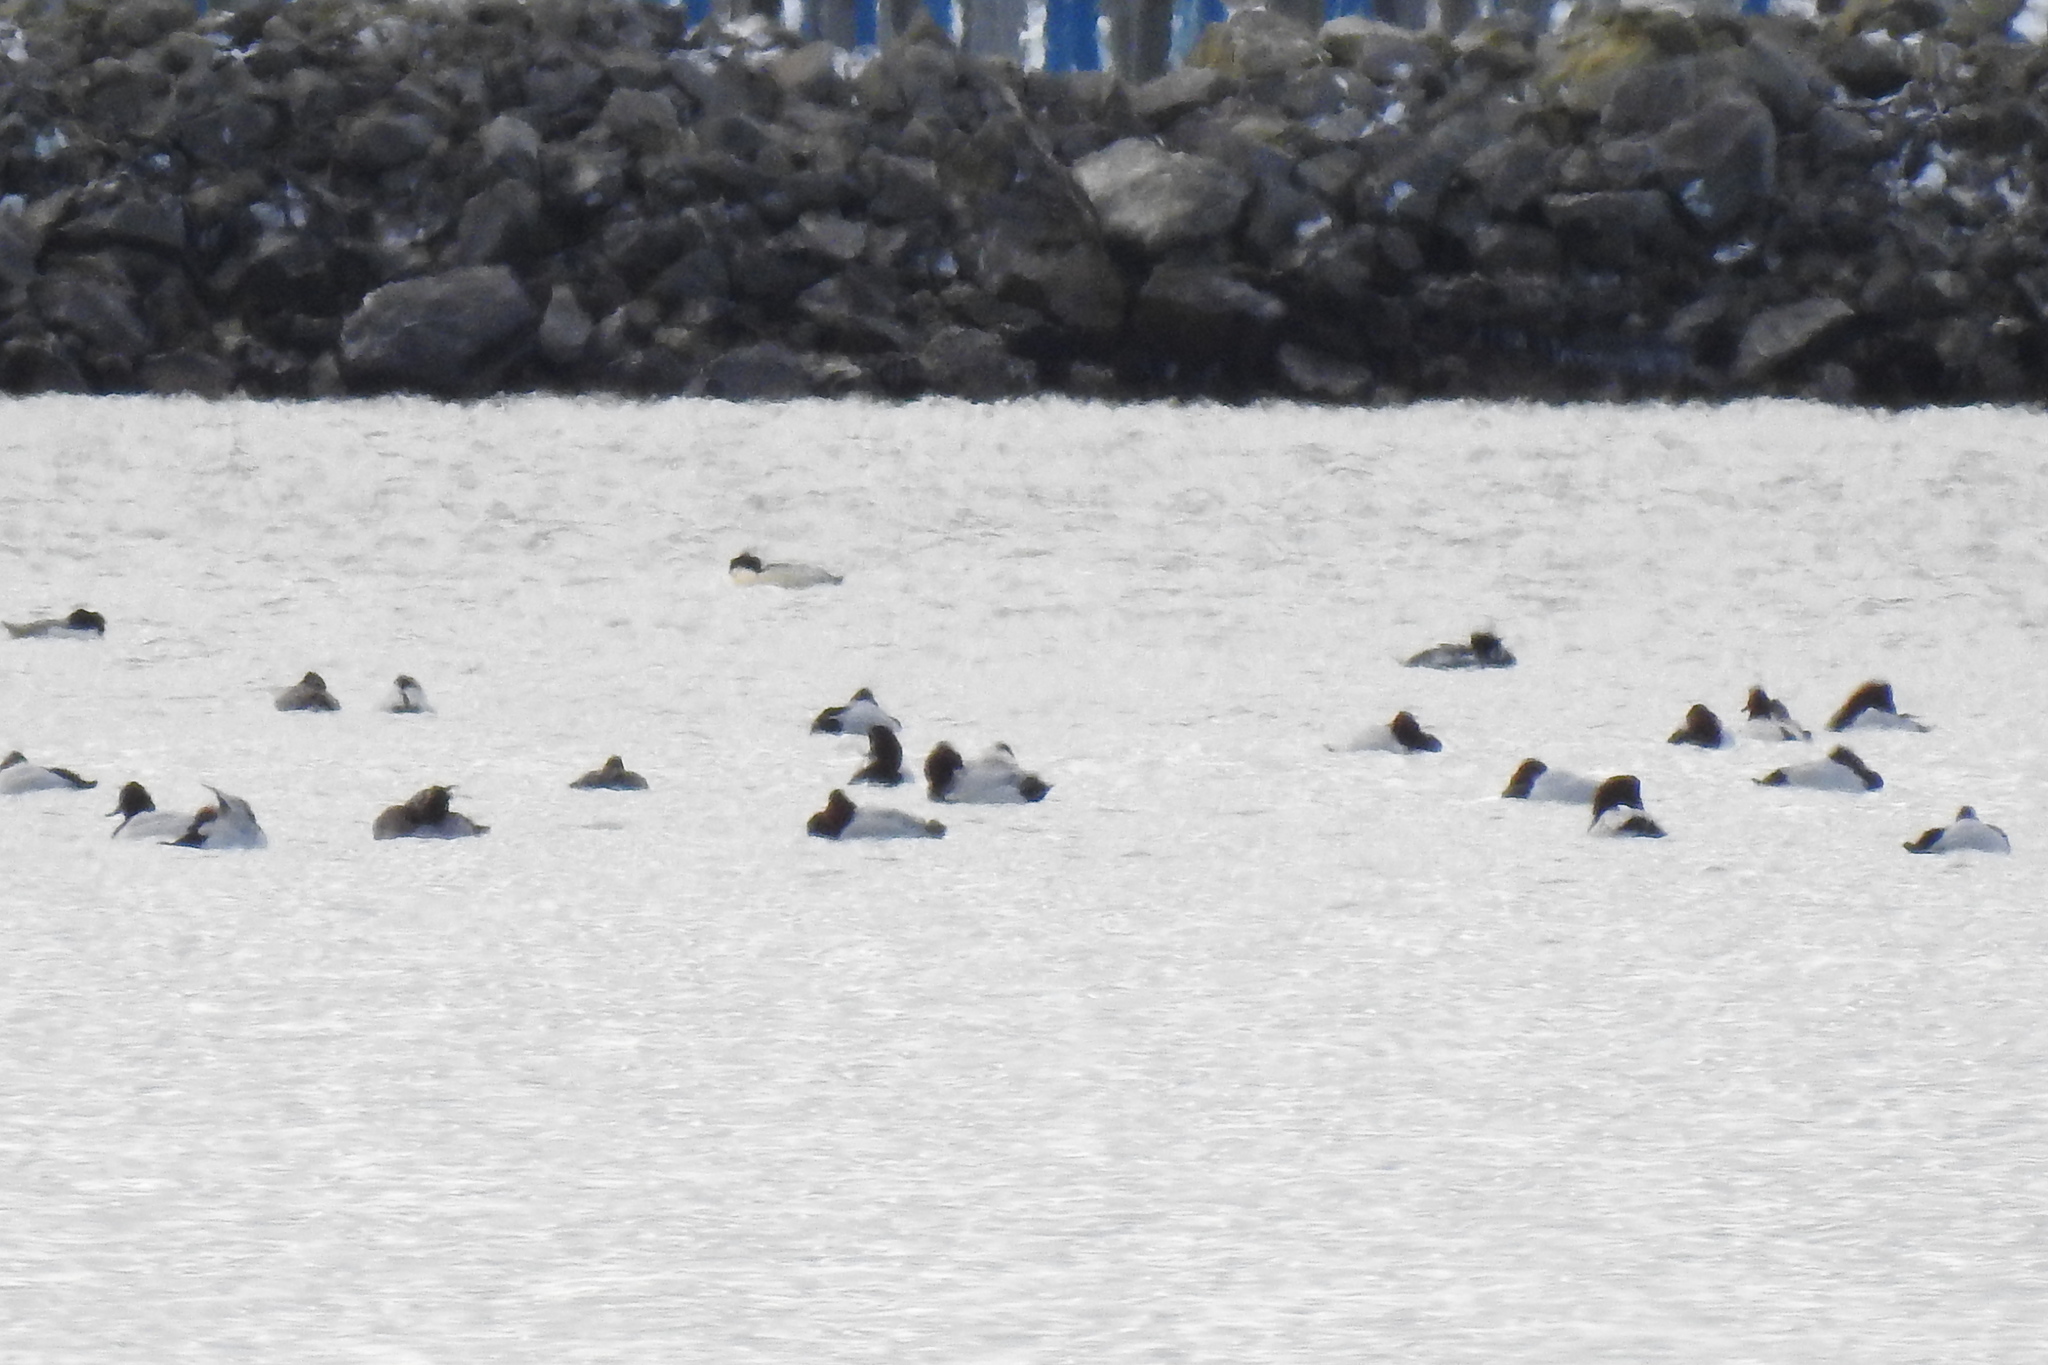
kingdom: Animalia
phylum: Chordata
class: Aves
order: Anseriformes
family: Anatidae
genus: Aythya
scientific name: Aythya valisineria
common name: Canvasback
